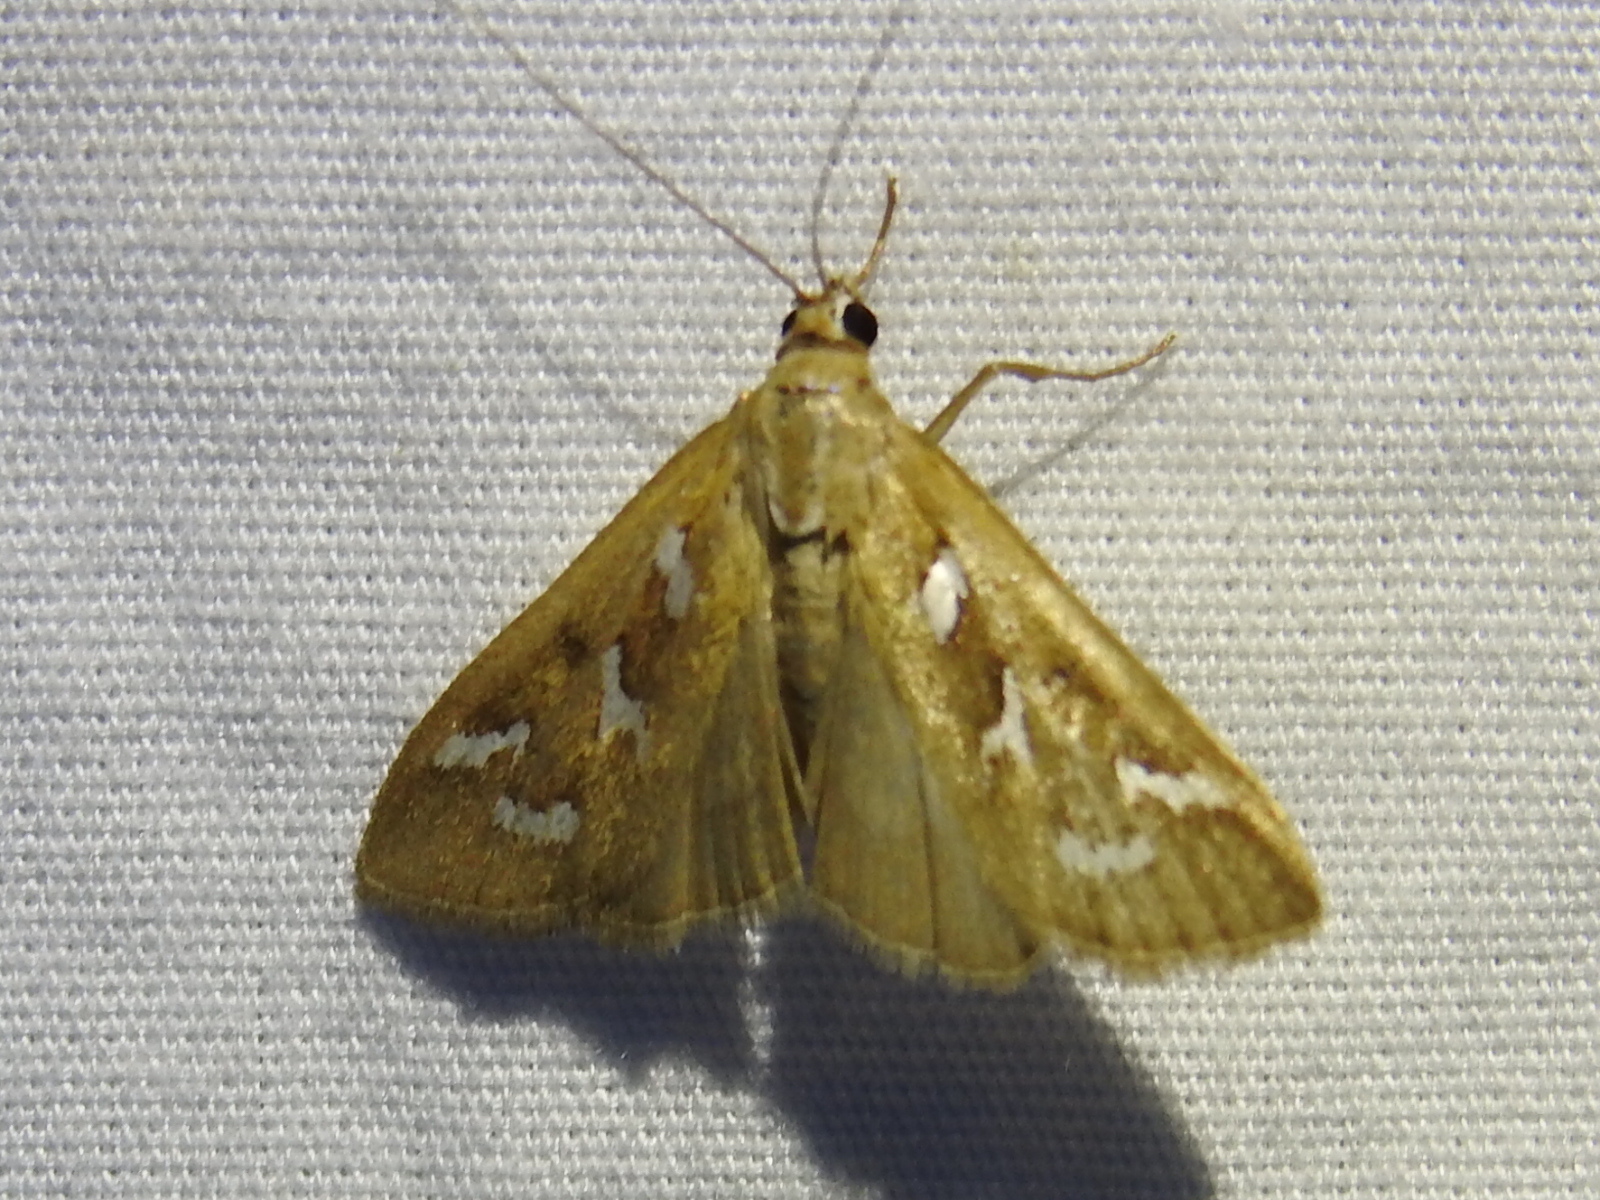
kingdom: Animalia
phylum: Arthropoda
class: Insecta
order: Lepidoptera
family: Crambidae
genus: Diastictis
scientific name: Diastictis fracturalis
